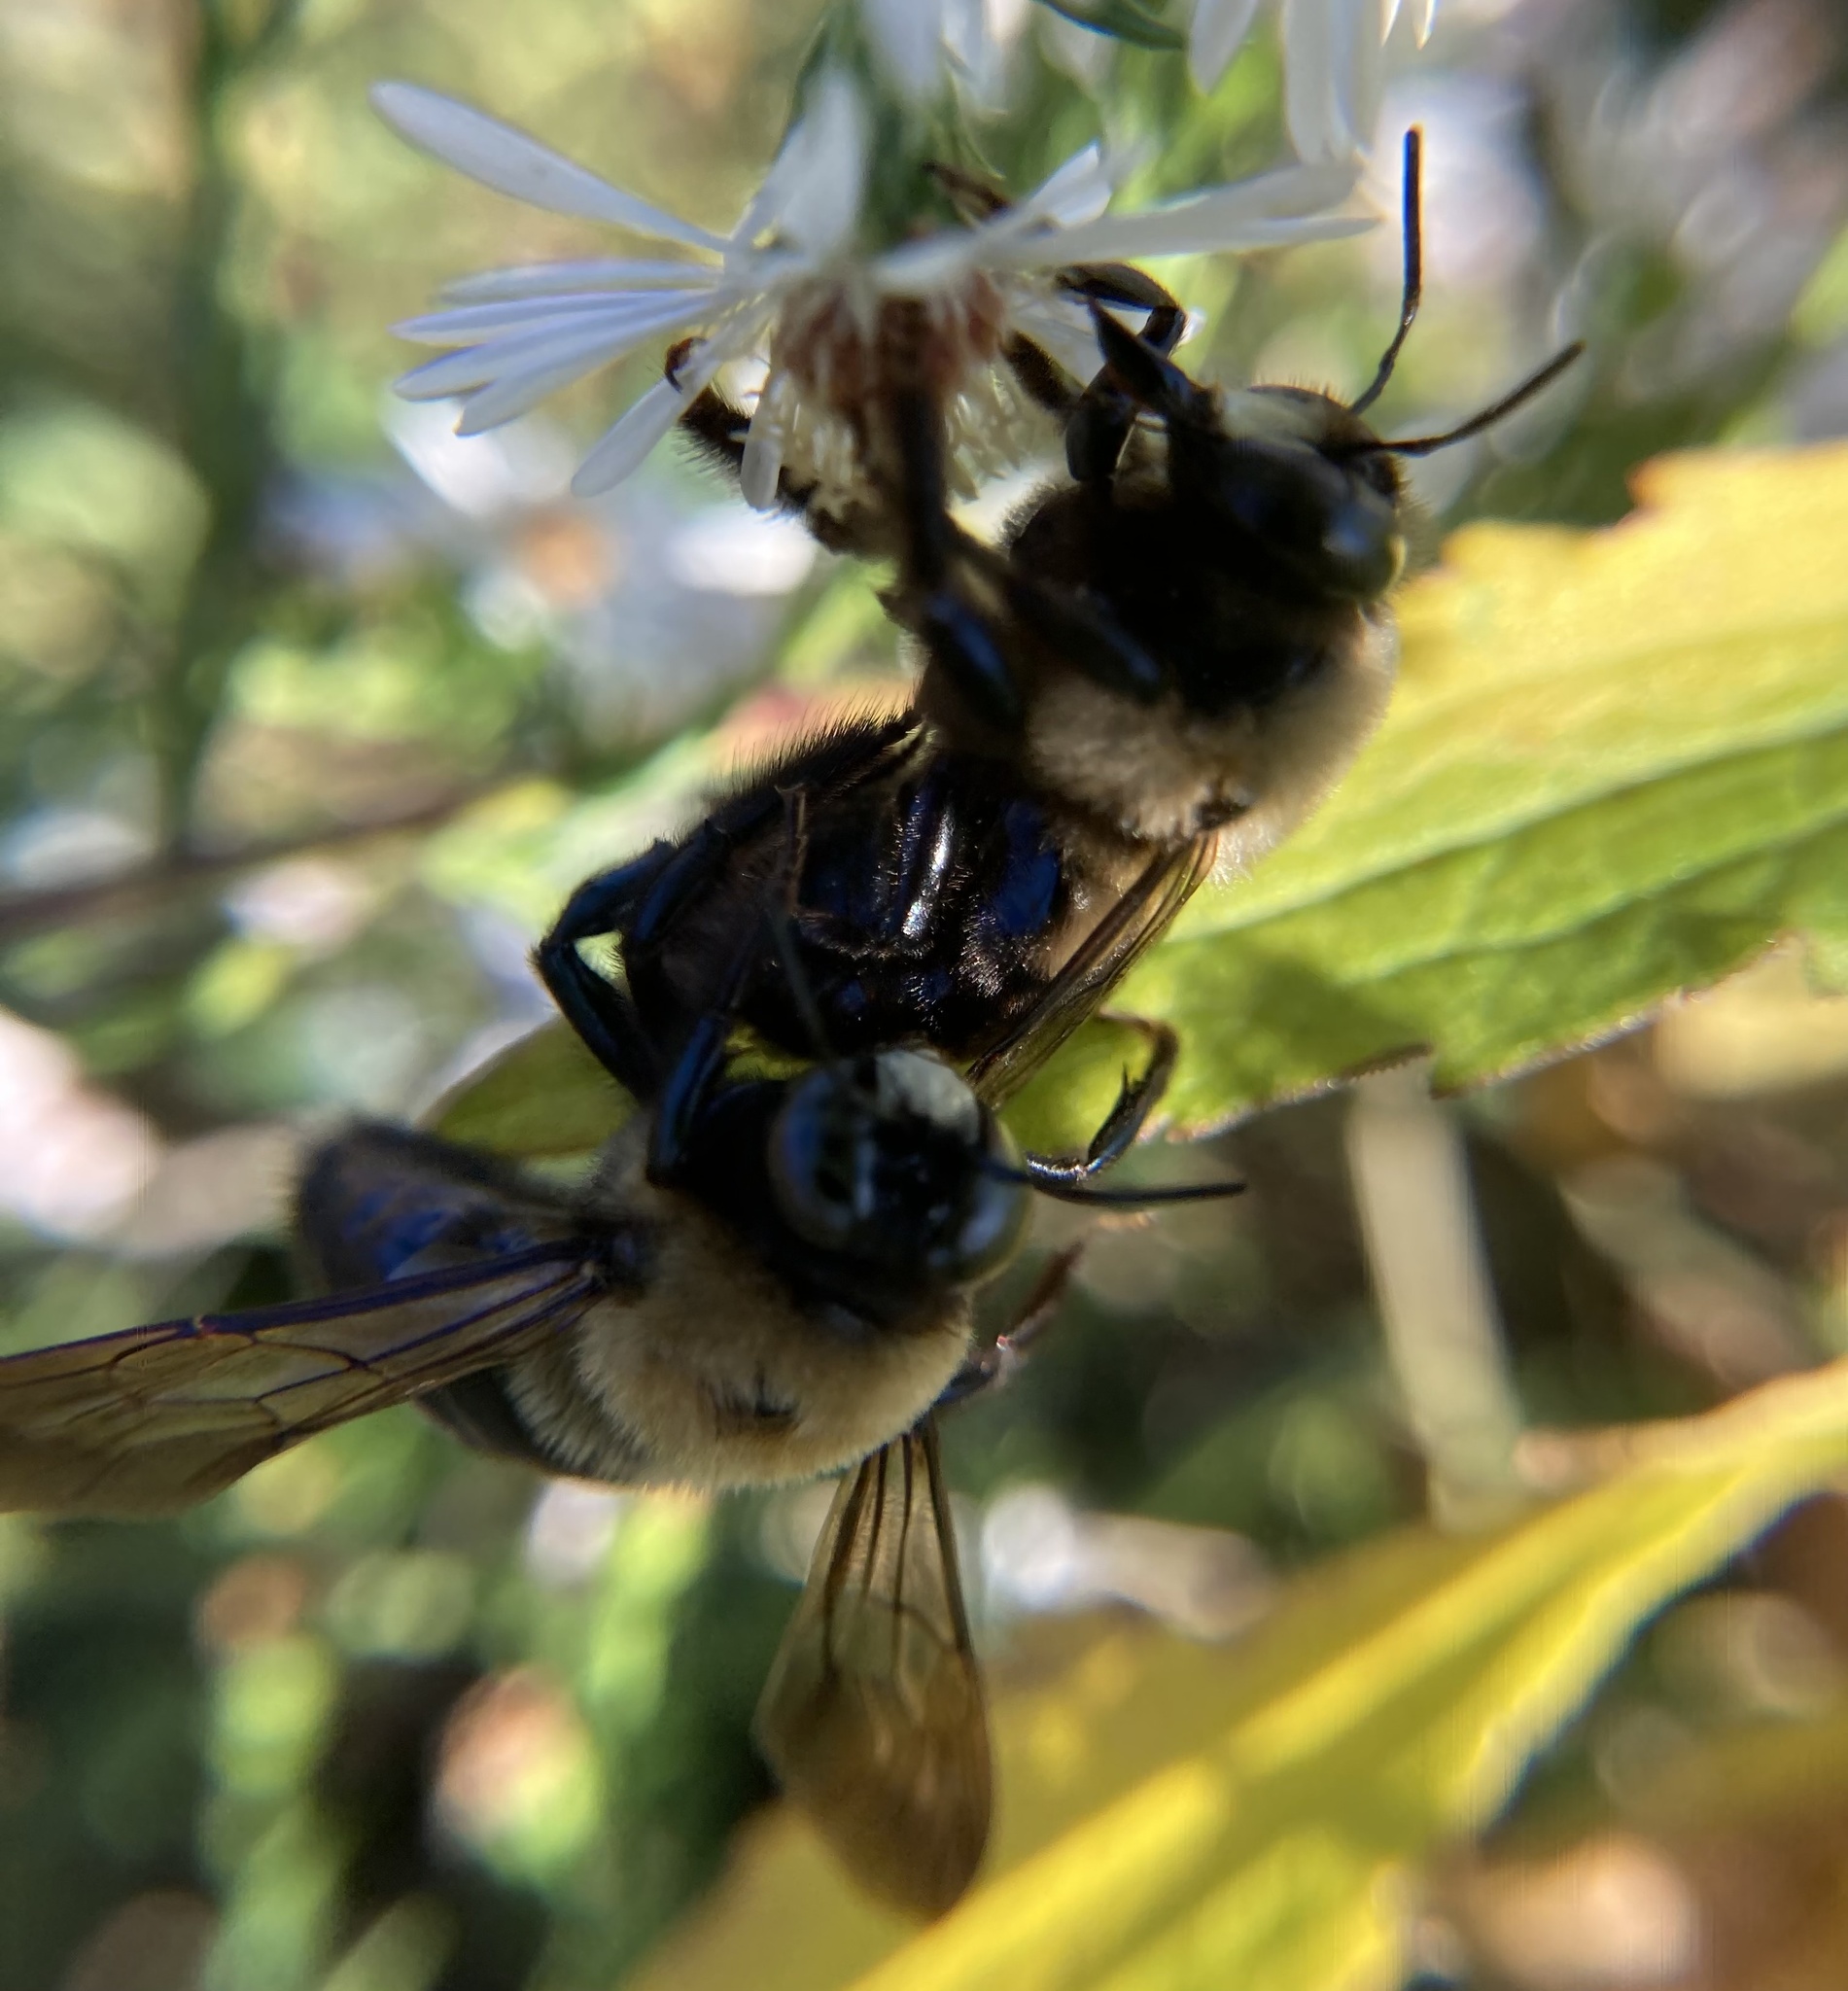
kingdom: Animalia
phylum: Arthropoda
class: Insecta
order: Hymenoptera
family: Apidae
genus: Xylocopa
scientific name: Xylocopa virginica
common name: Carpenter bee
